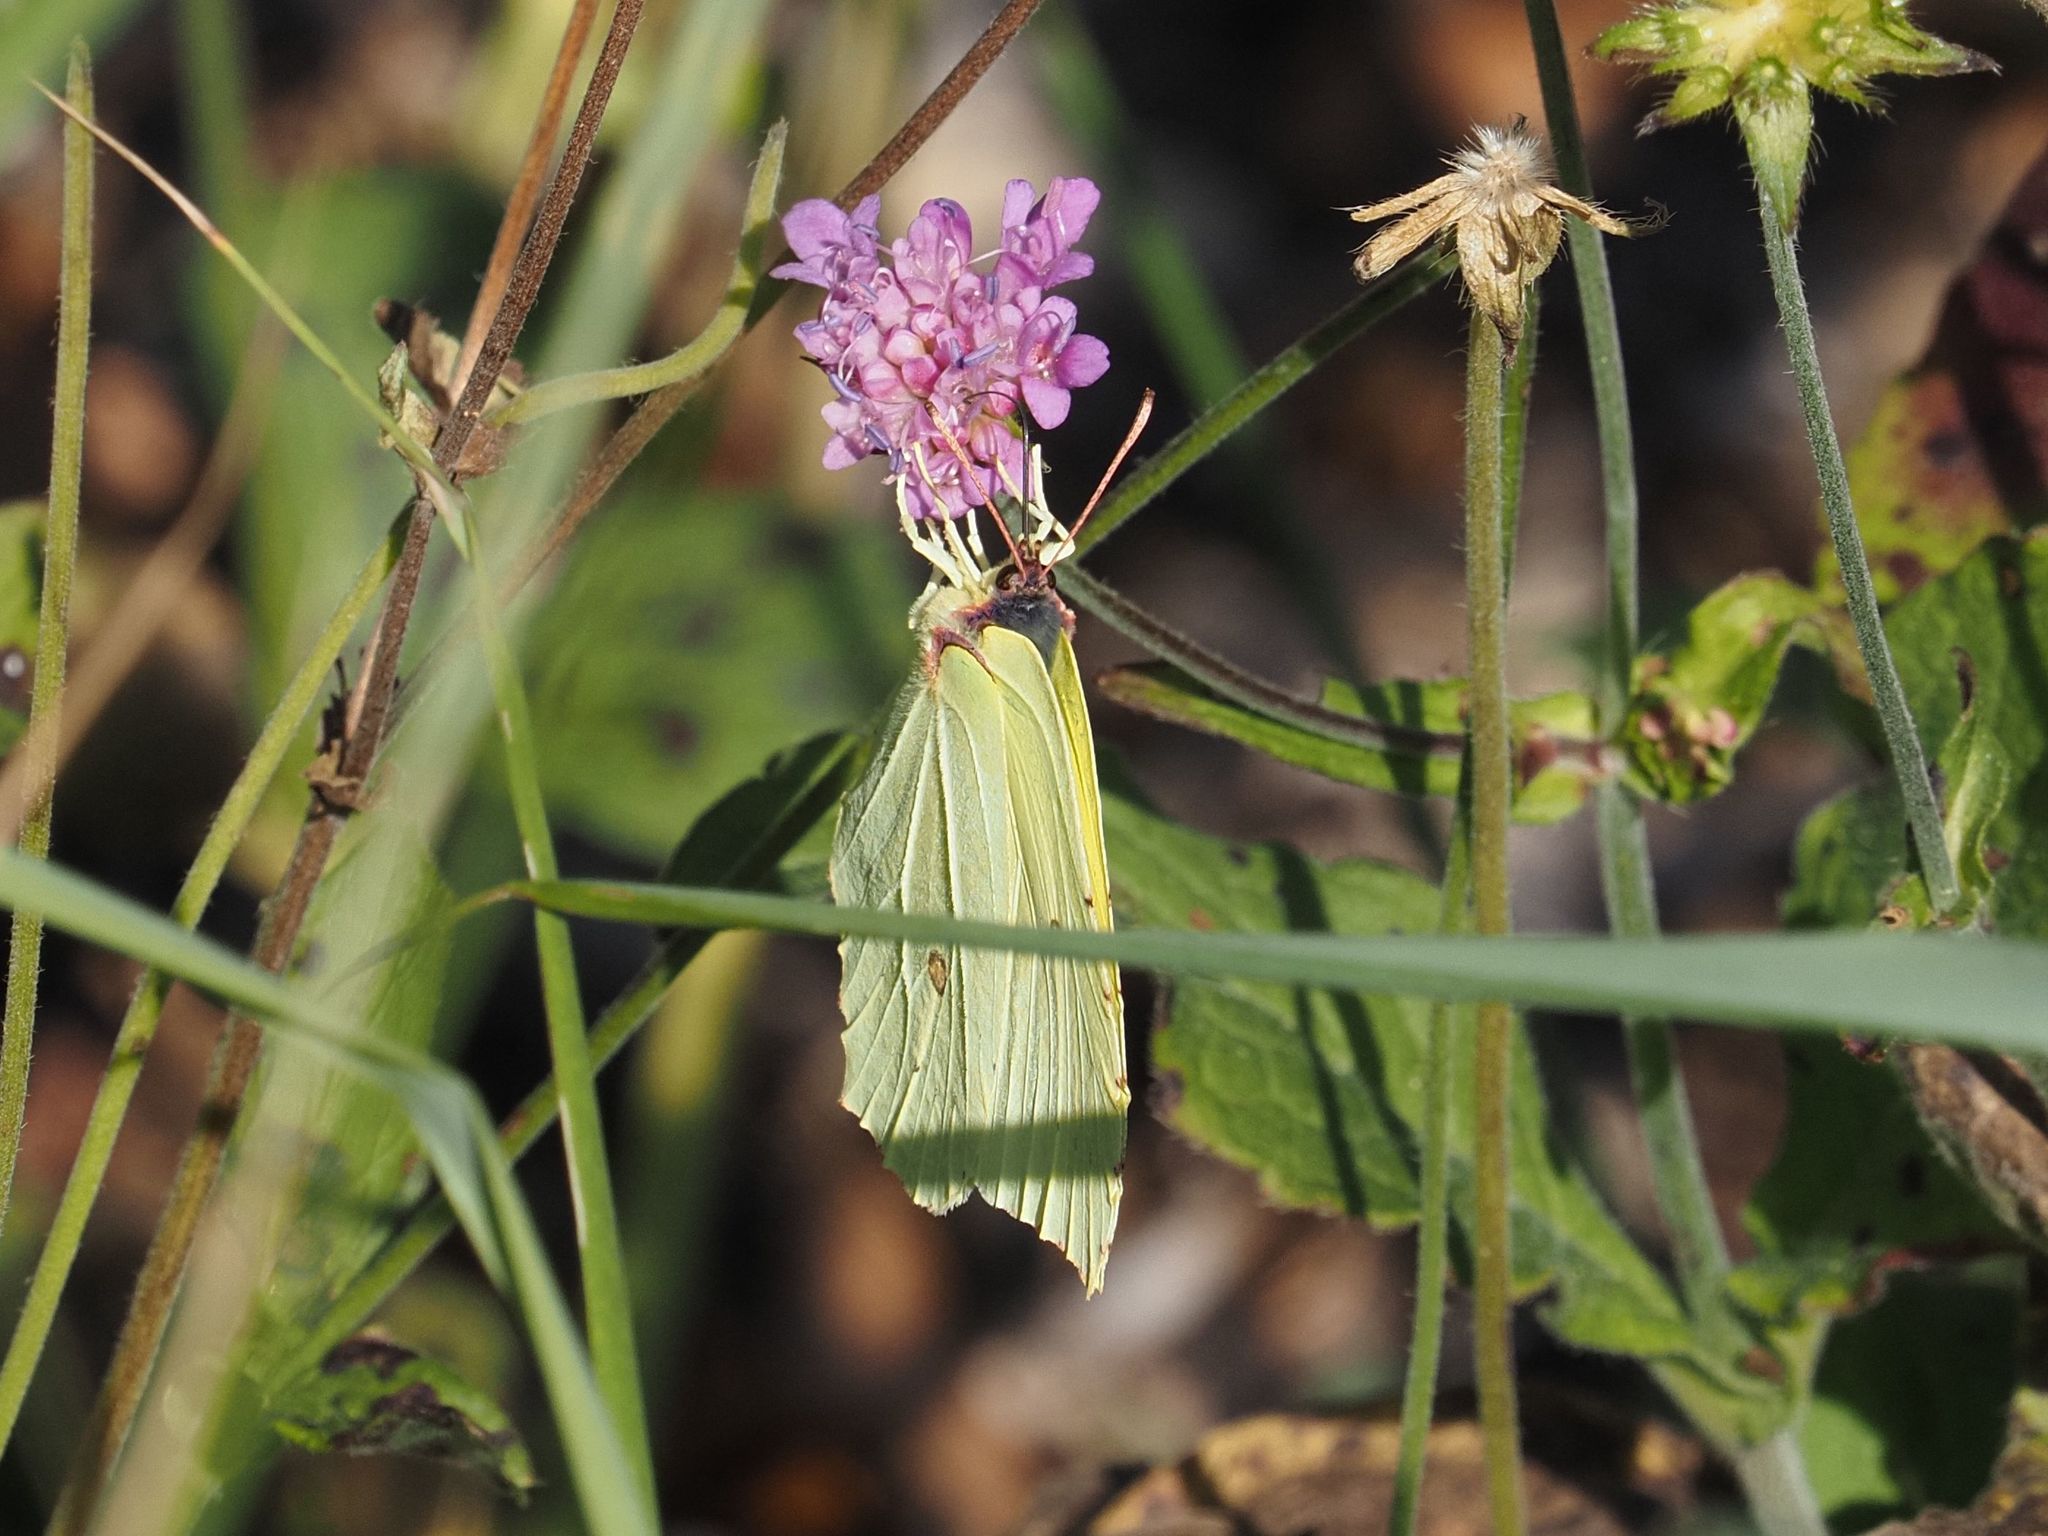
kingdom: Animalia
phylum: Arthropoda
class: Insecta
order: Lepidoptera
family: Pieridae
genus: Gonepteryx
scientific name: Gonepteryx rhamni
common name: Brimstone
